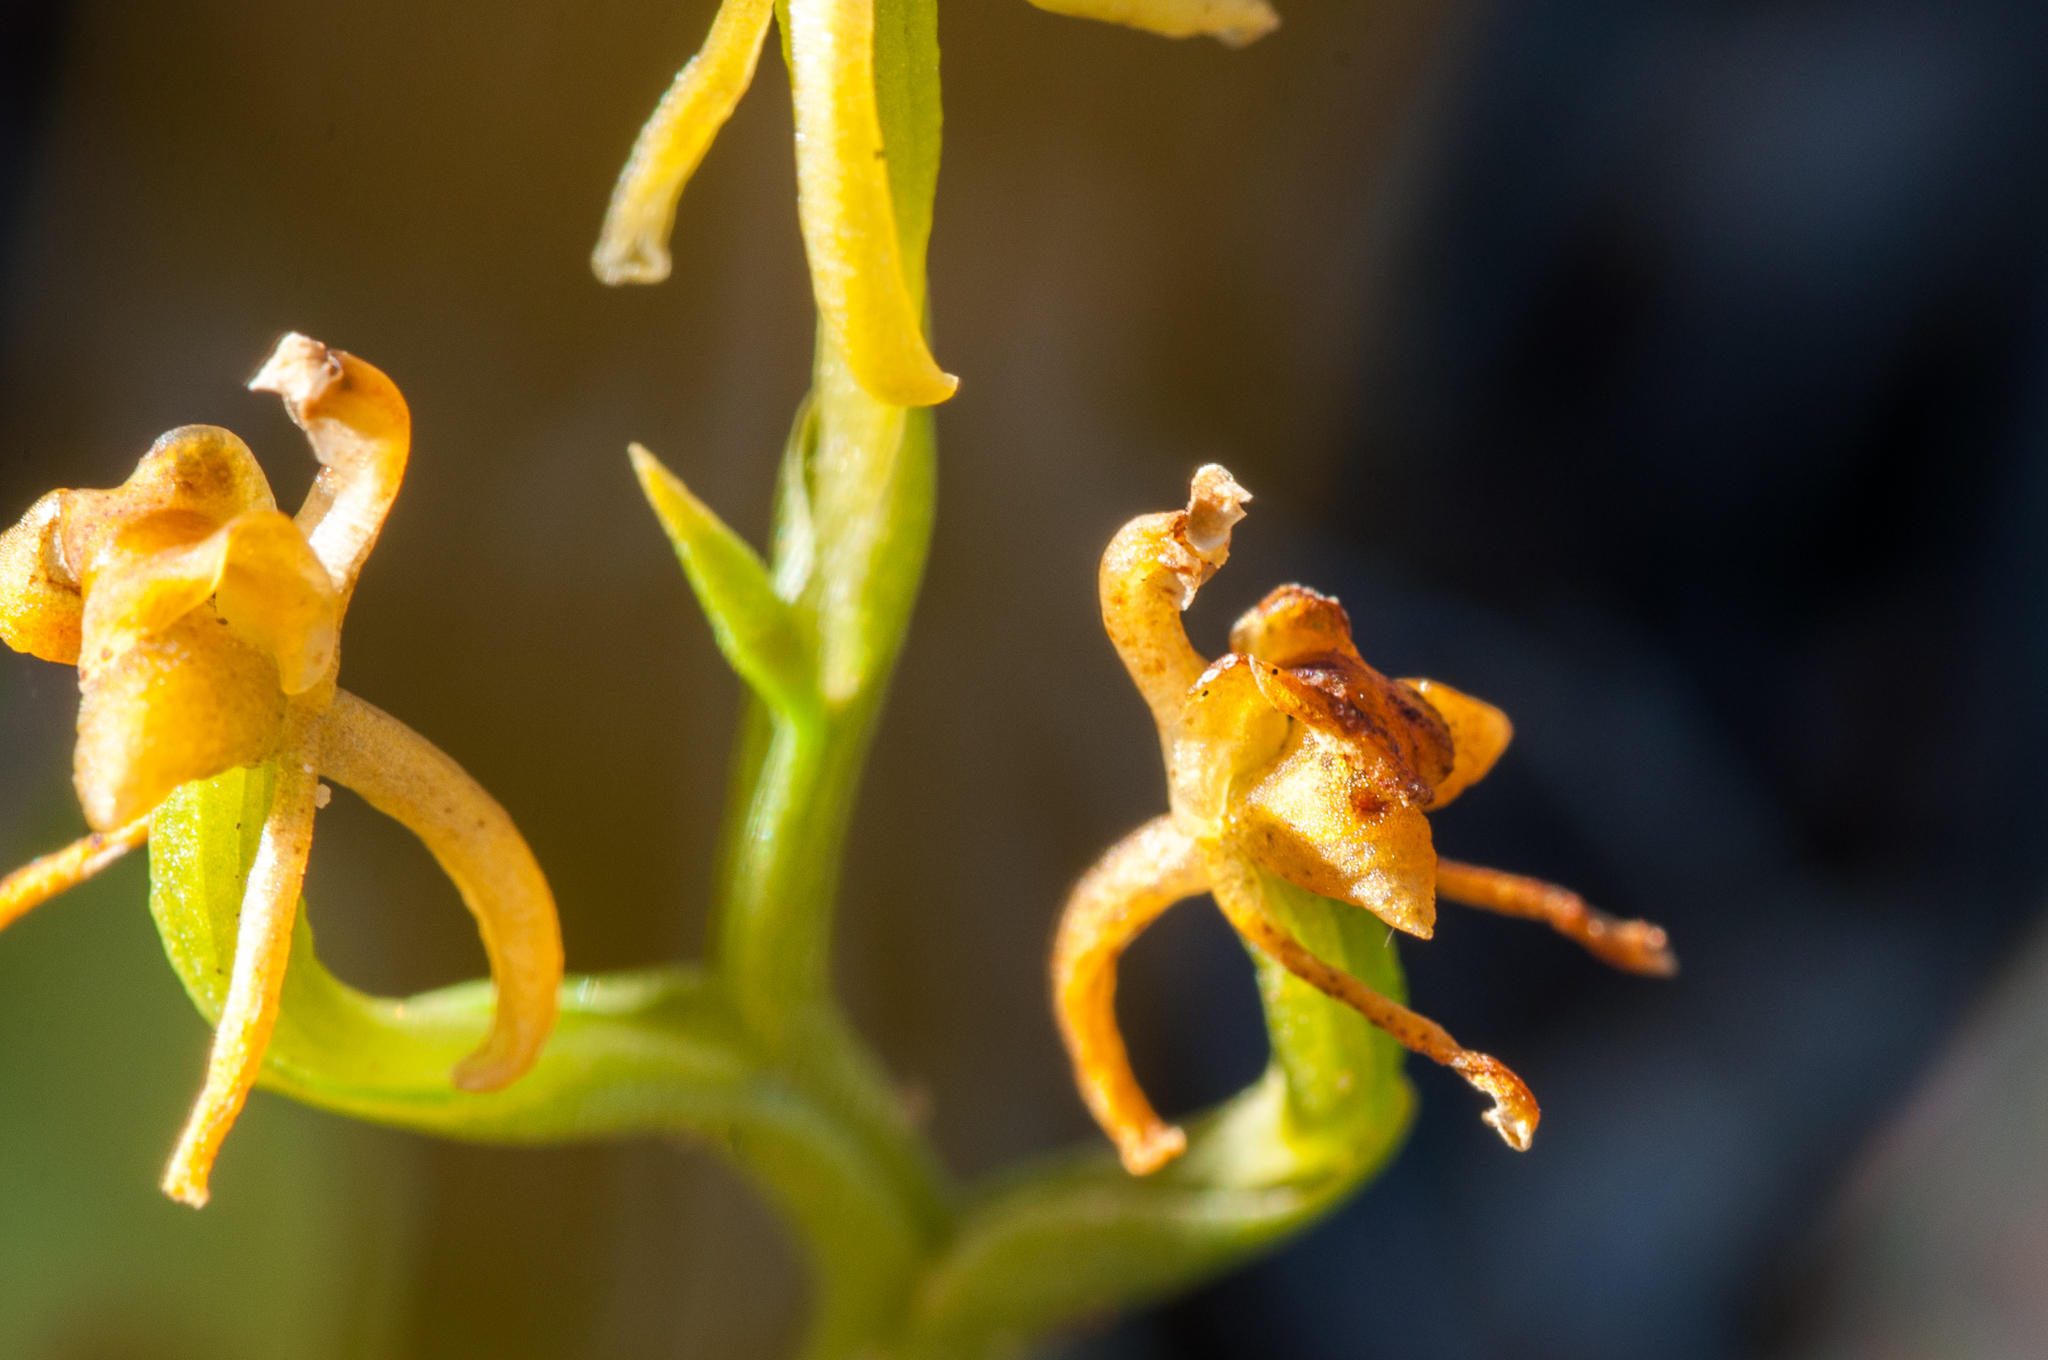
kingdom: Plantae
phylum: Tracheophyta
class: Liliopsida
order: Asparagales
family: Orchidaceae
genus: Liparis
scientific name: Liparis capensis
